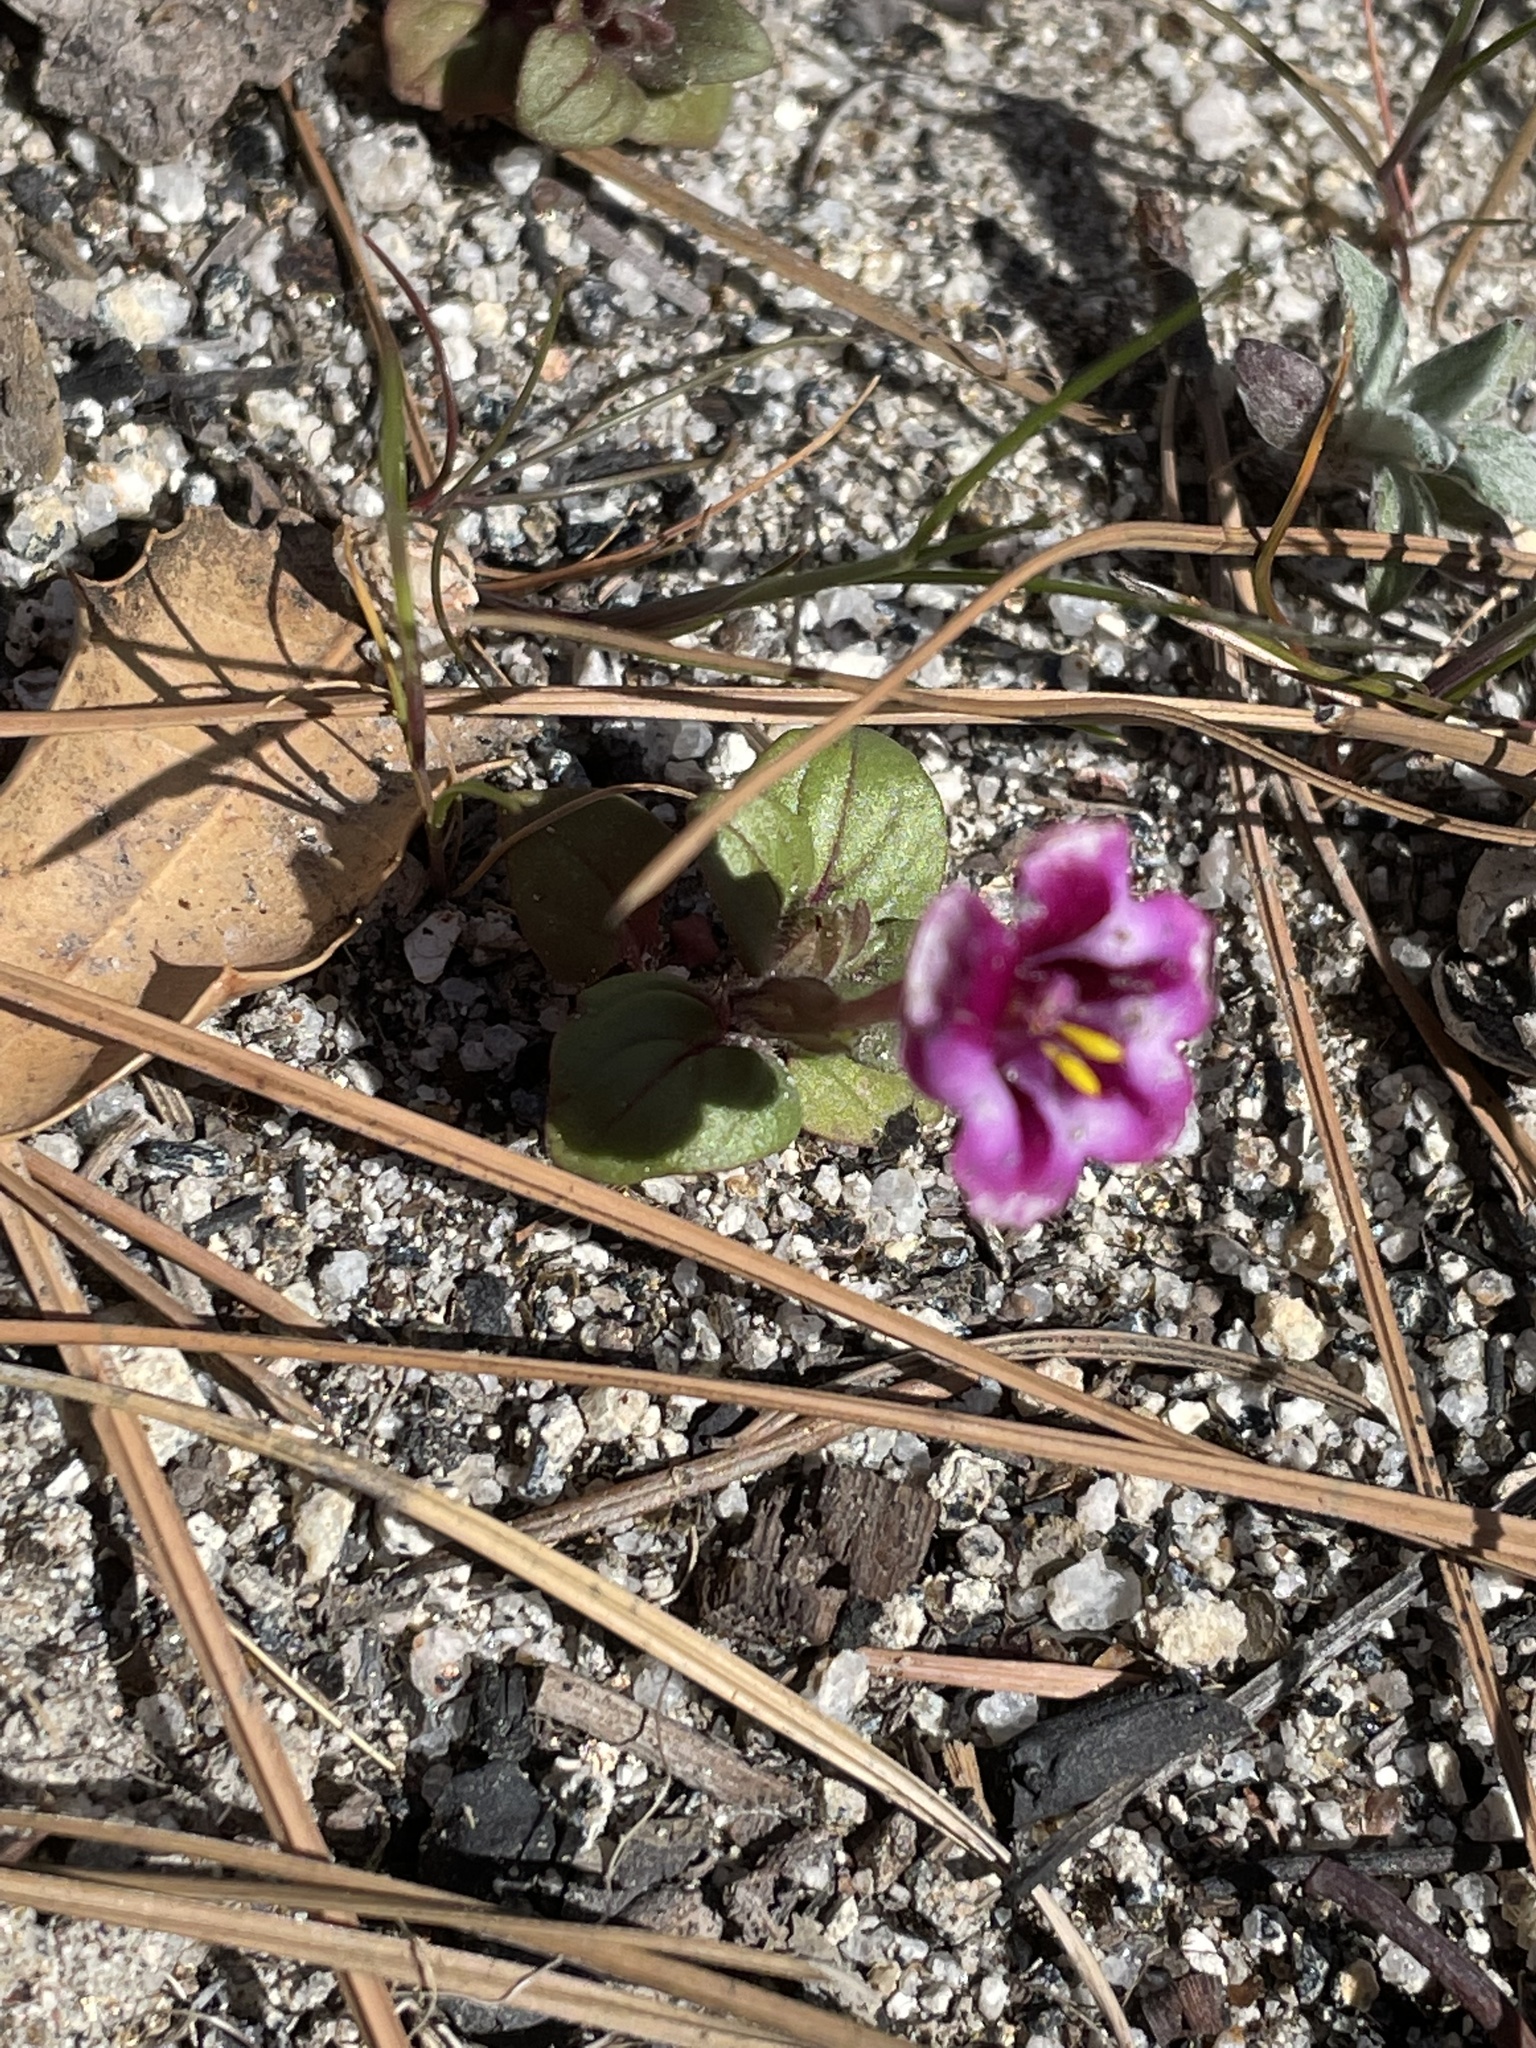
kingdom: Plantae
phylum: Tracheophyta
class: Magnoliopsida
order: Lamiales
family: Phrymaceae
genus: Diplacus
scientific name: Diplacus kelloggii
